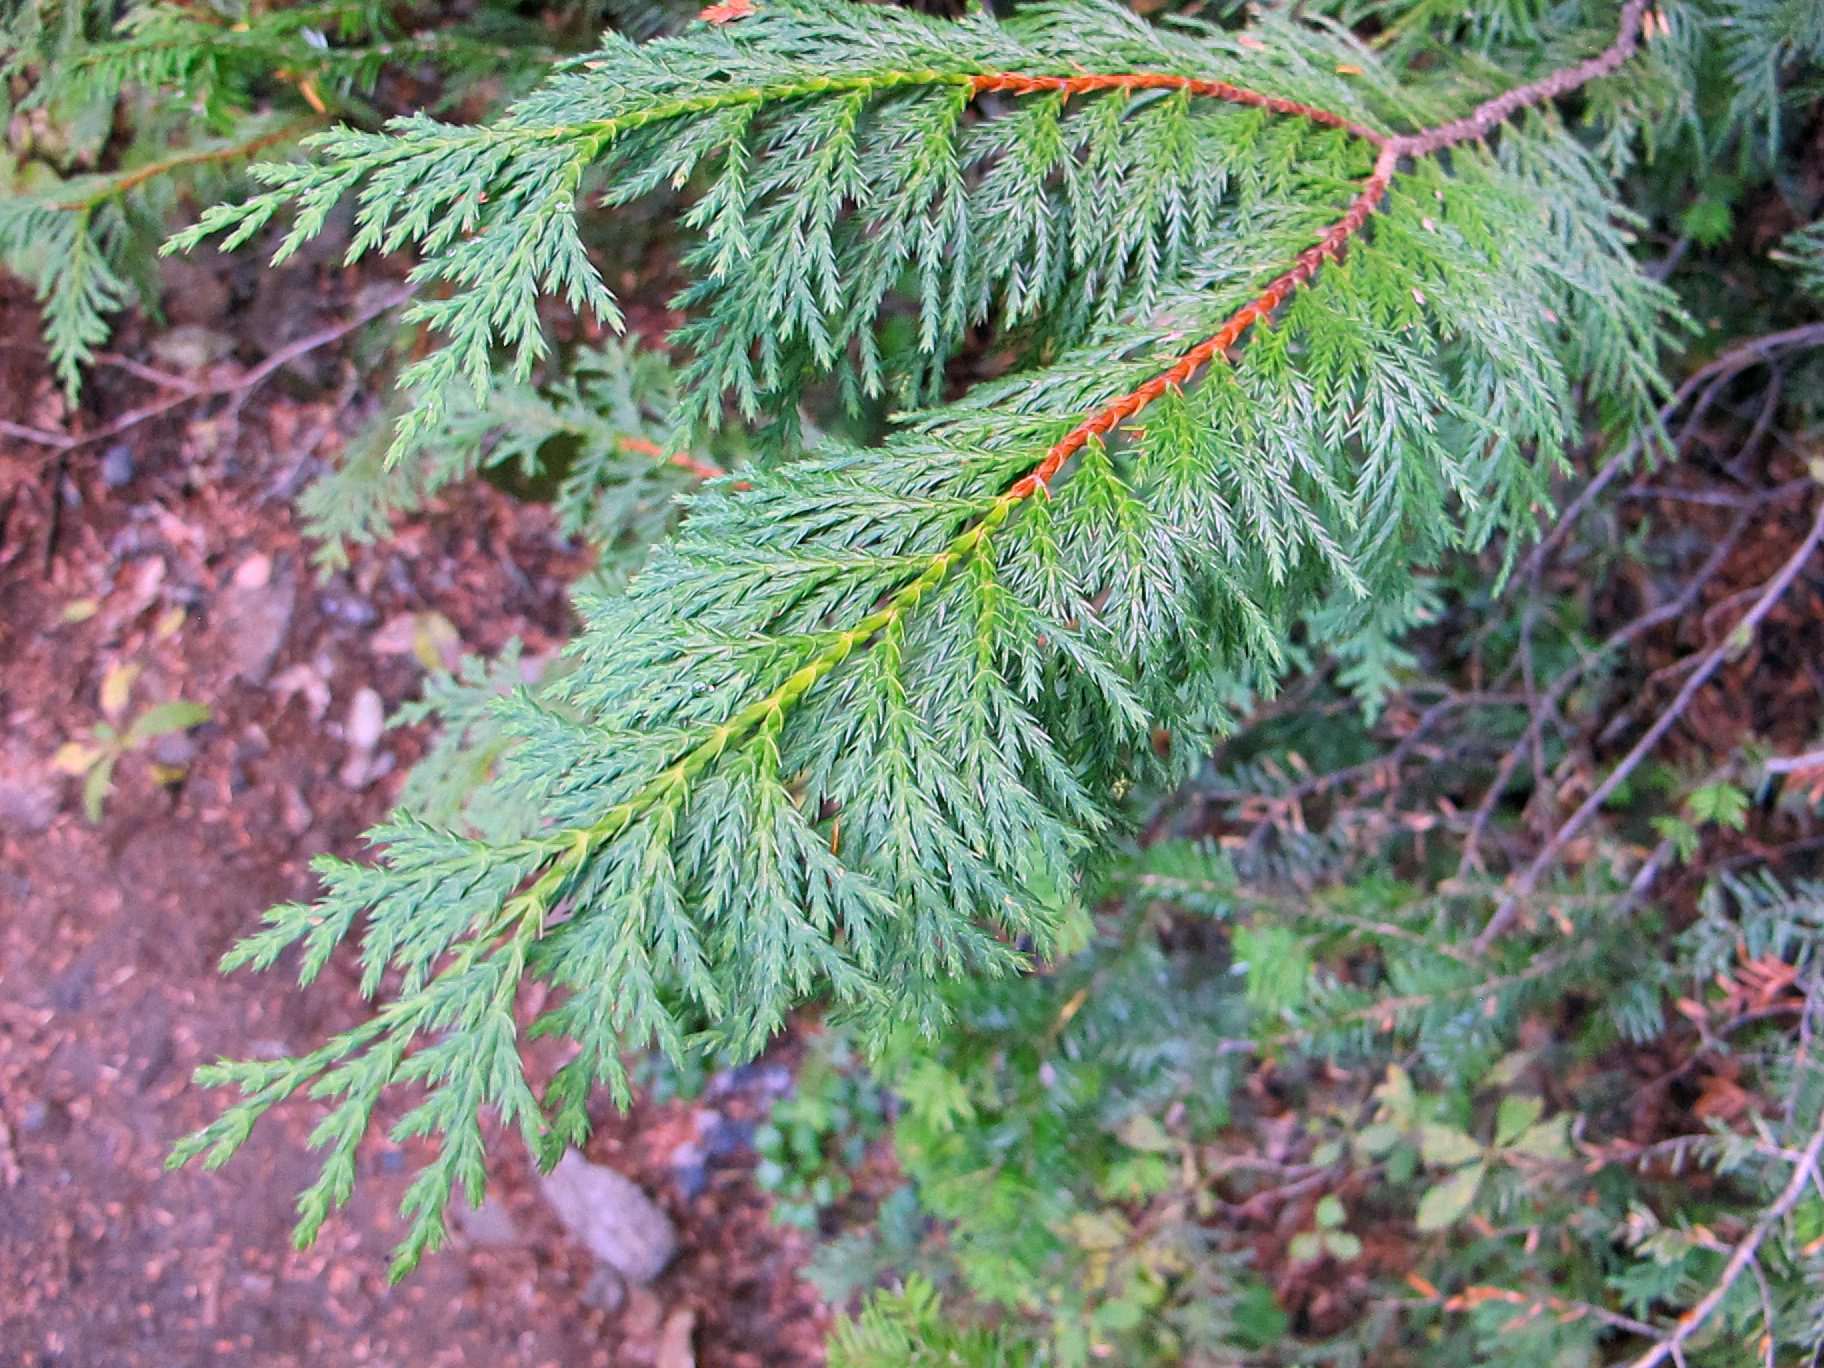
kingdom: Plantae
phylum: Tracheophyta
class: Pinopsida
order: Pinales
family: Cupressaceae
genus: Xanthocyparis
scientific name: Xanthocyparis nootkatensis
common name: Nootka cypress
